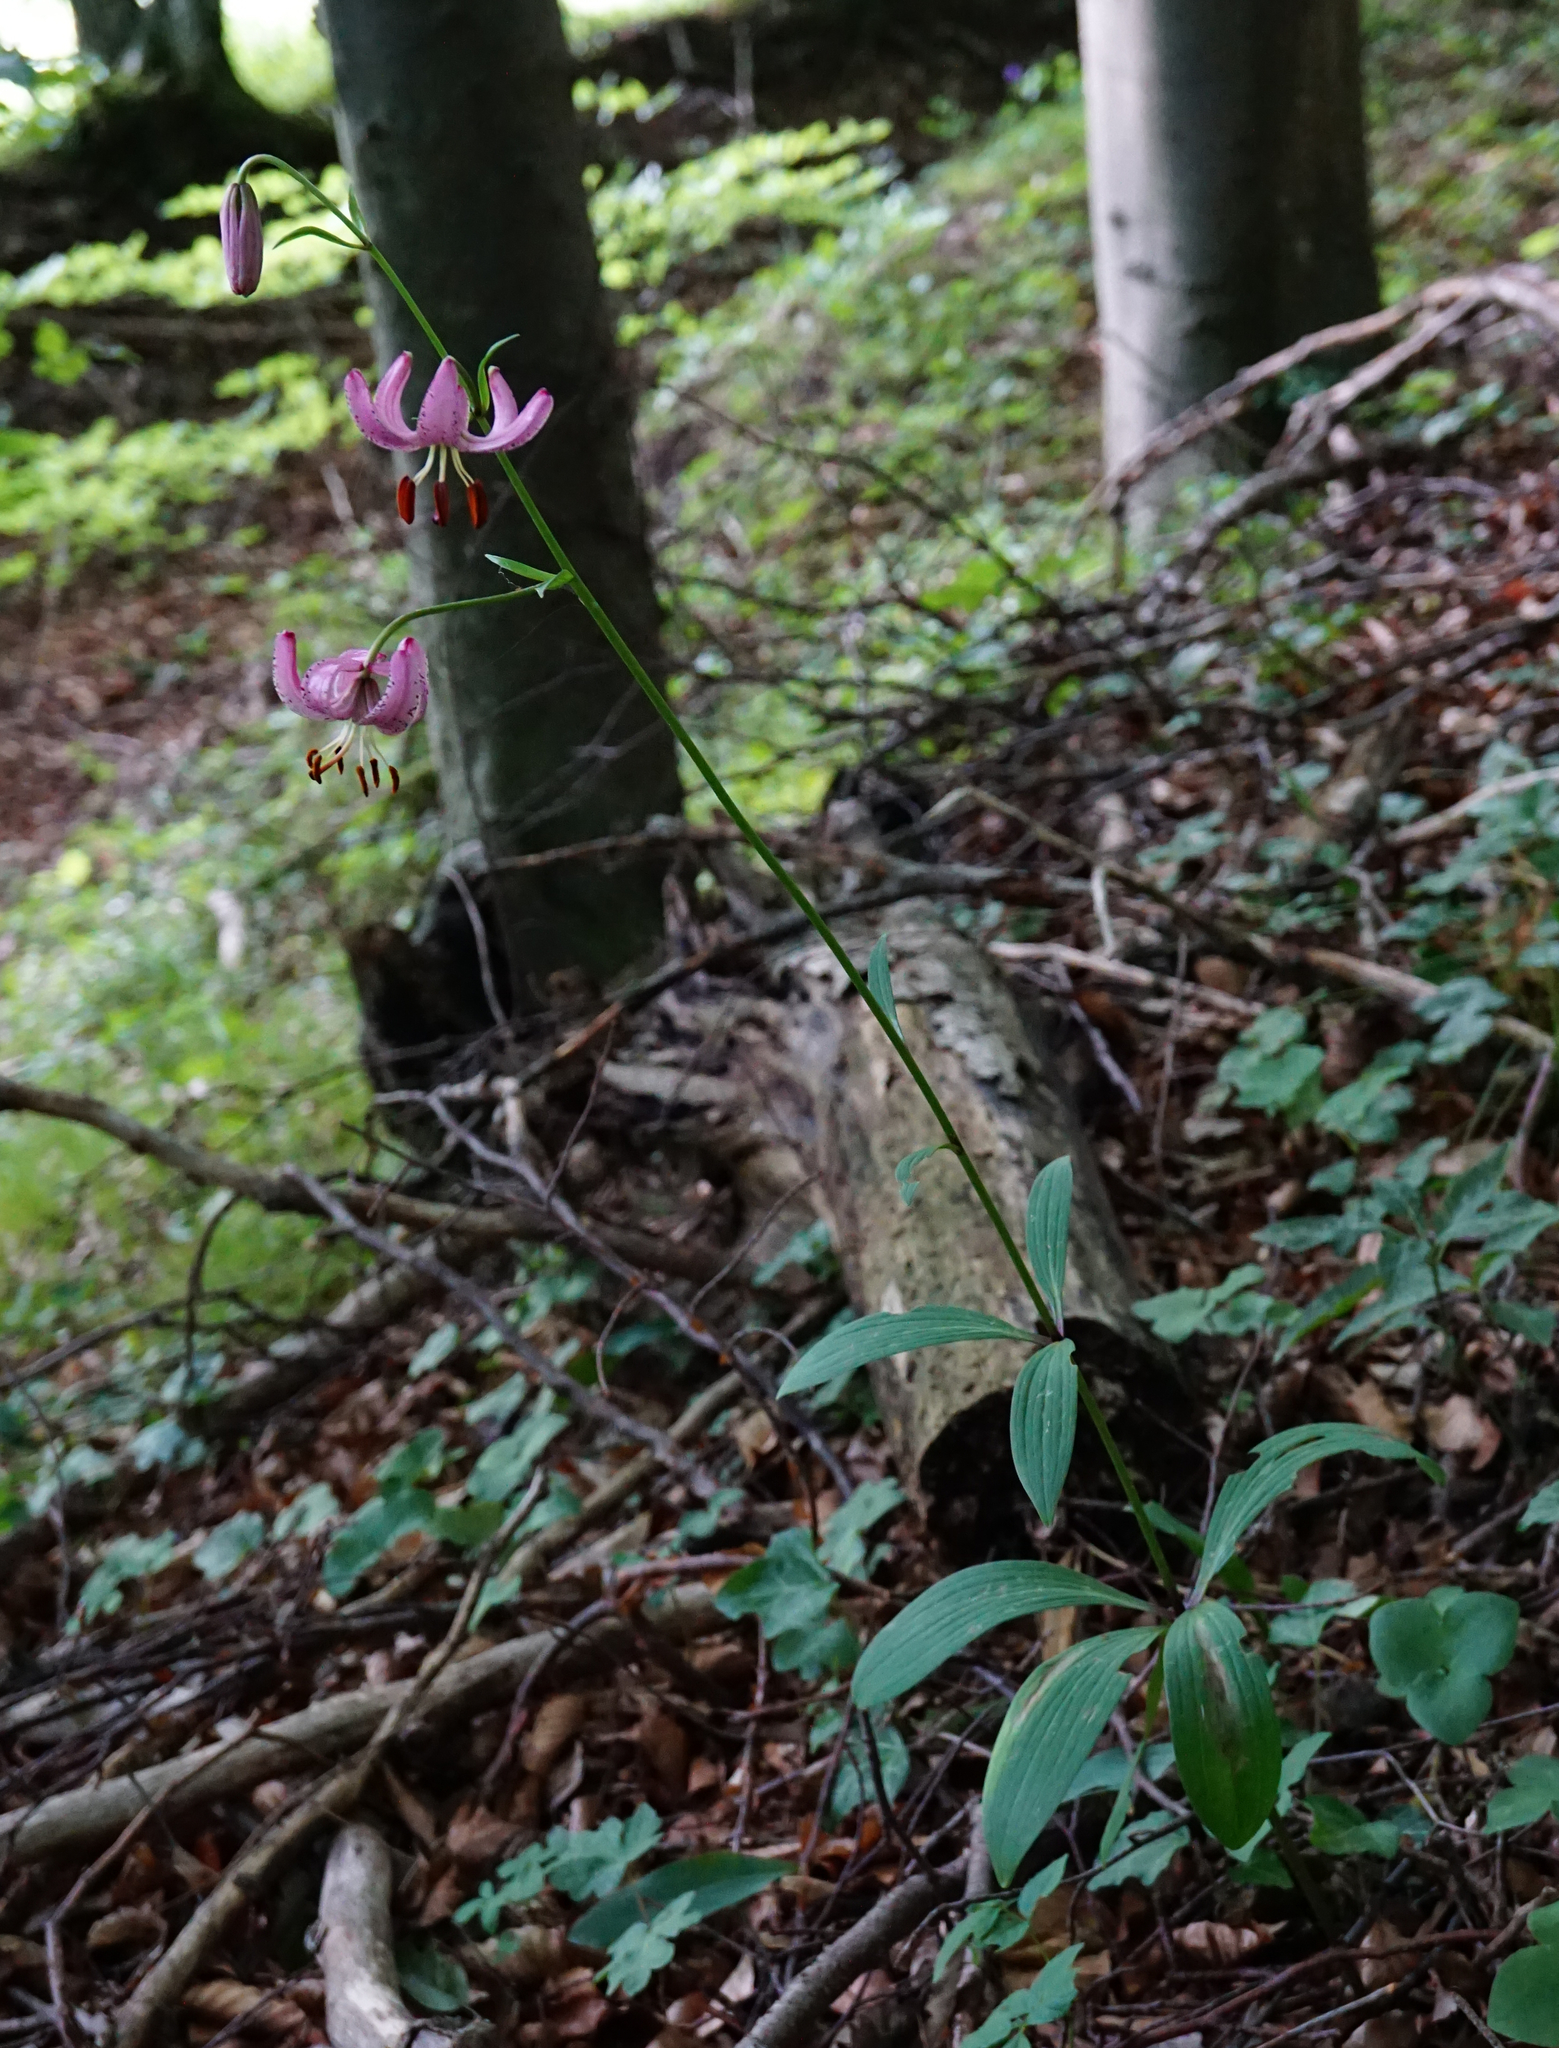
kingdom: Plantae
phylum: Tracheophyta
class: Liliopsida
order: Liliales
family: Liliaceae
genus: Lilium
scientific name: Lilium martagon
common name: Martagon lily
